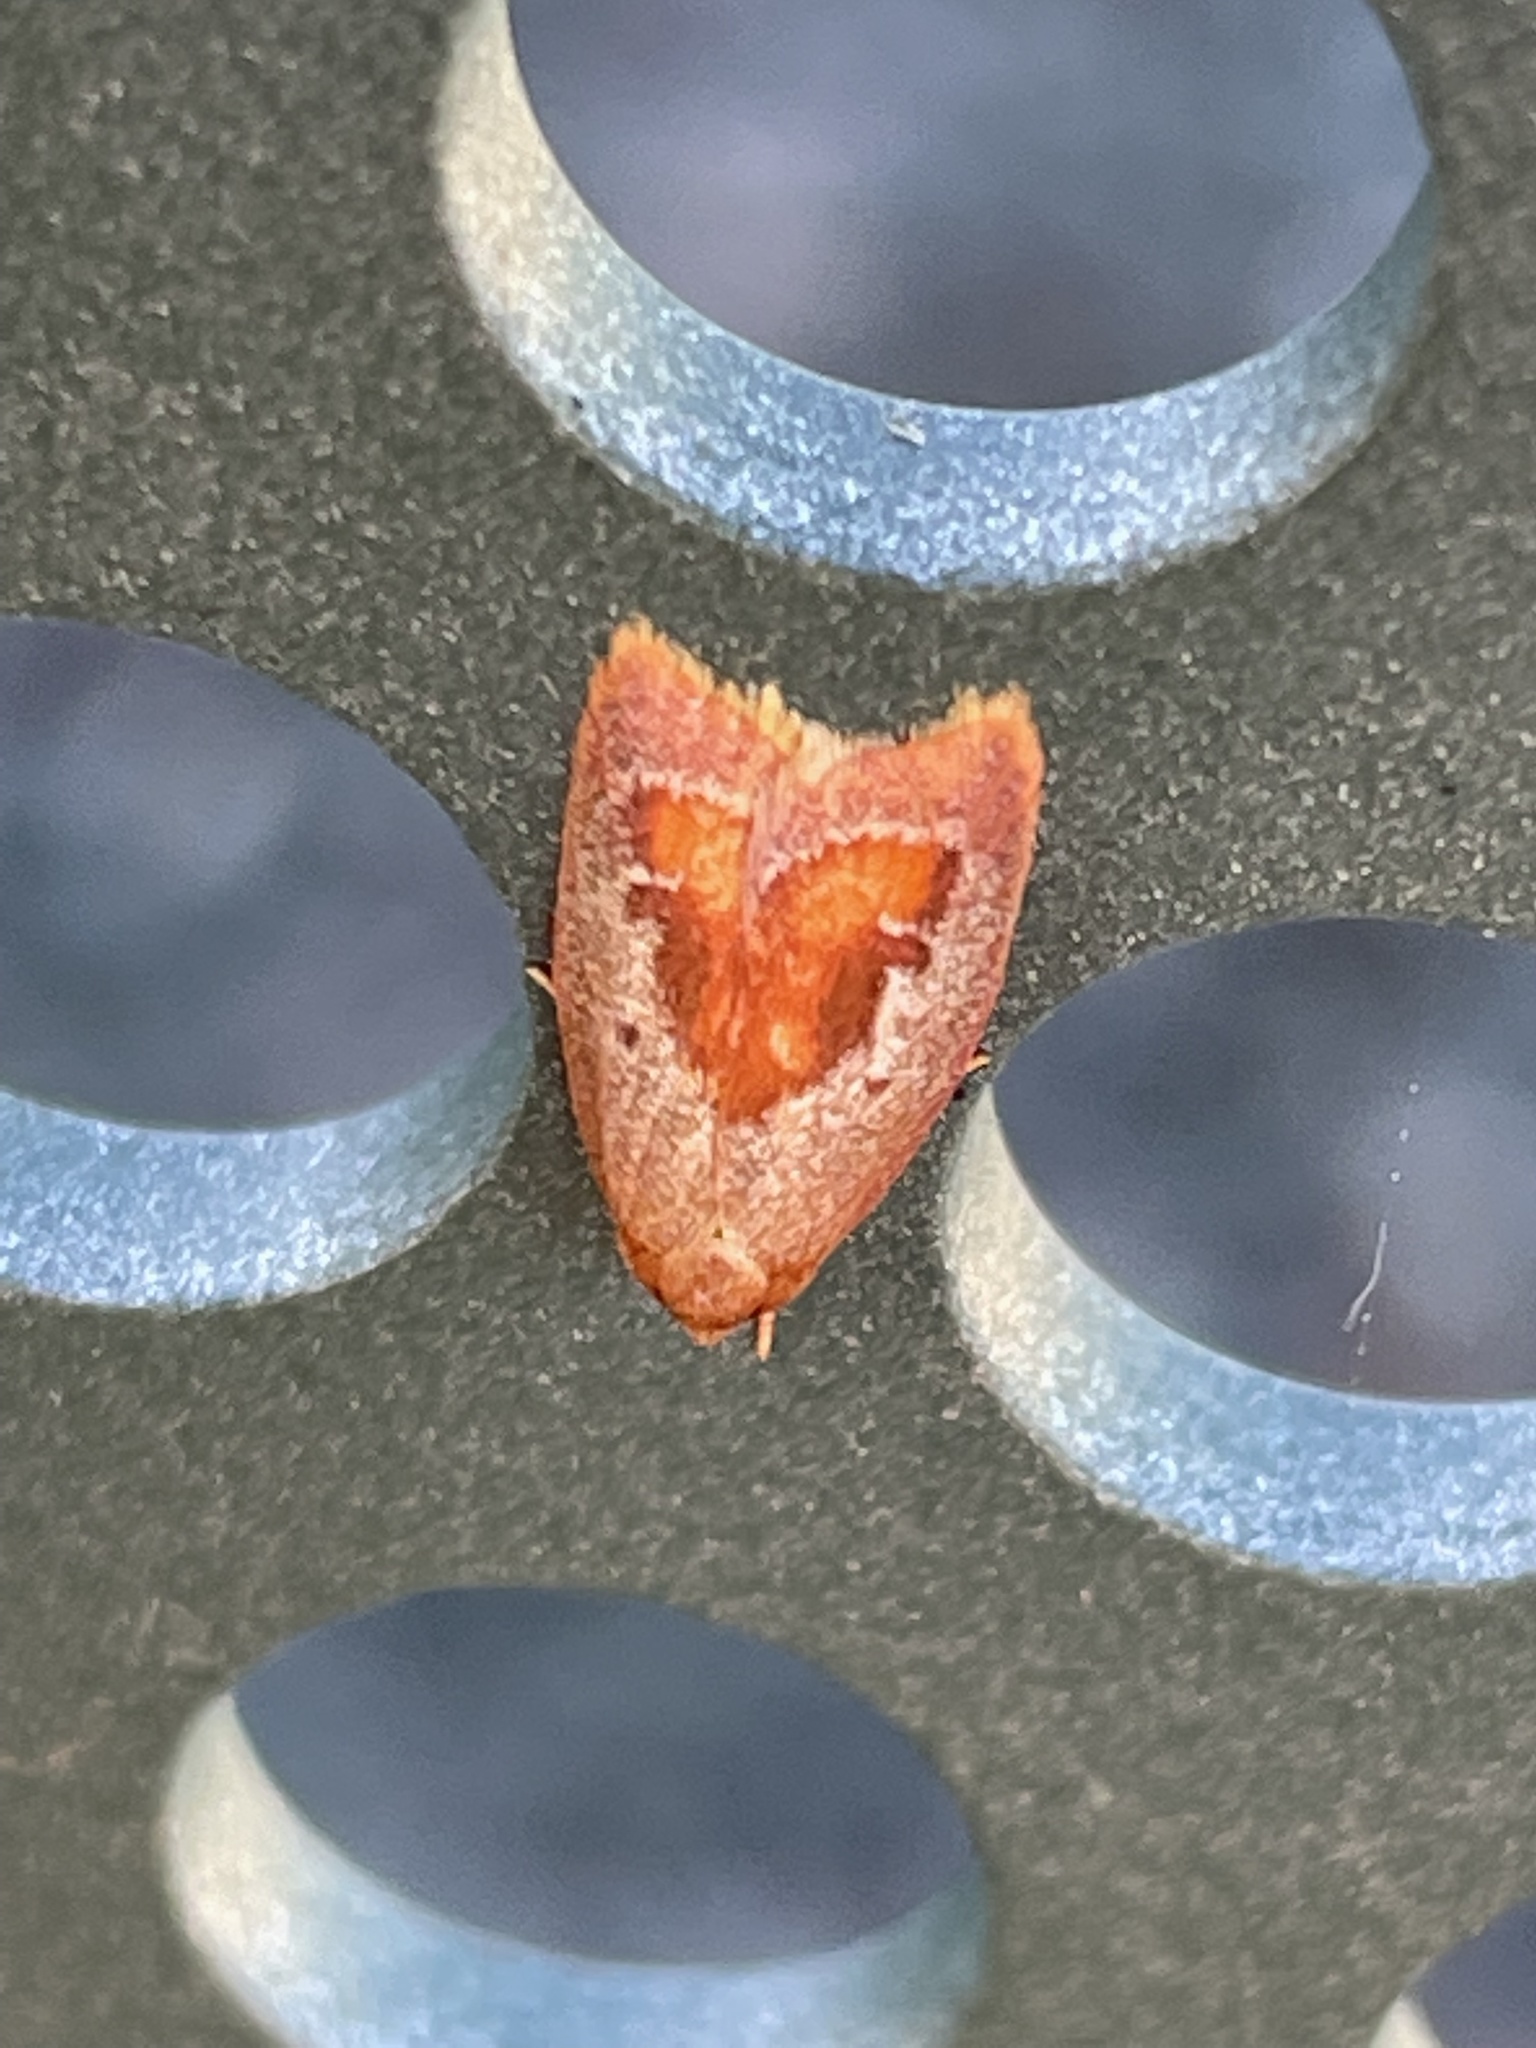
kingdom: Animalia
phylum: Arthropoda
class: Insecta
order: Lepidoptera
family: Oecophoridae
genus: Epicurica
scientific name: Epicurica laetiferanus
